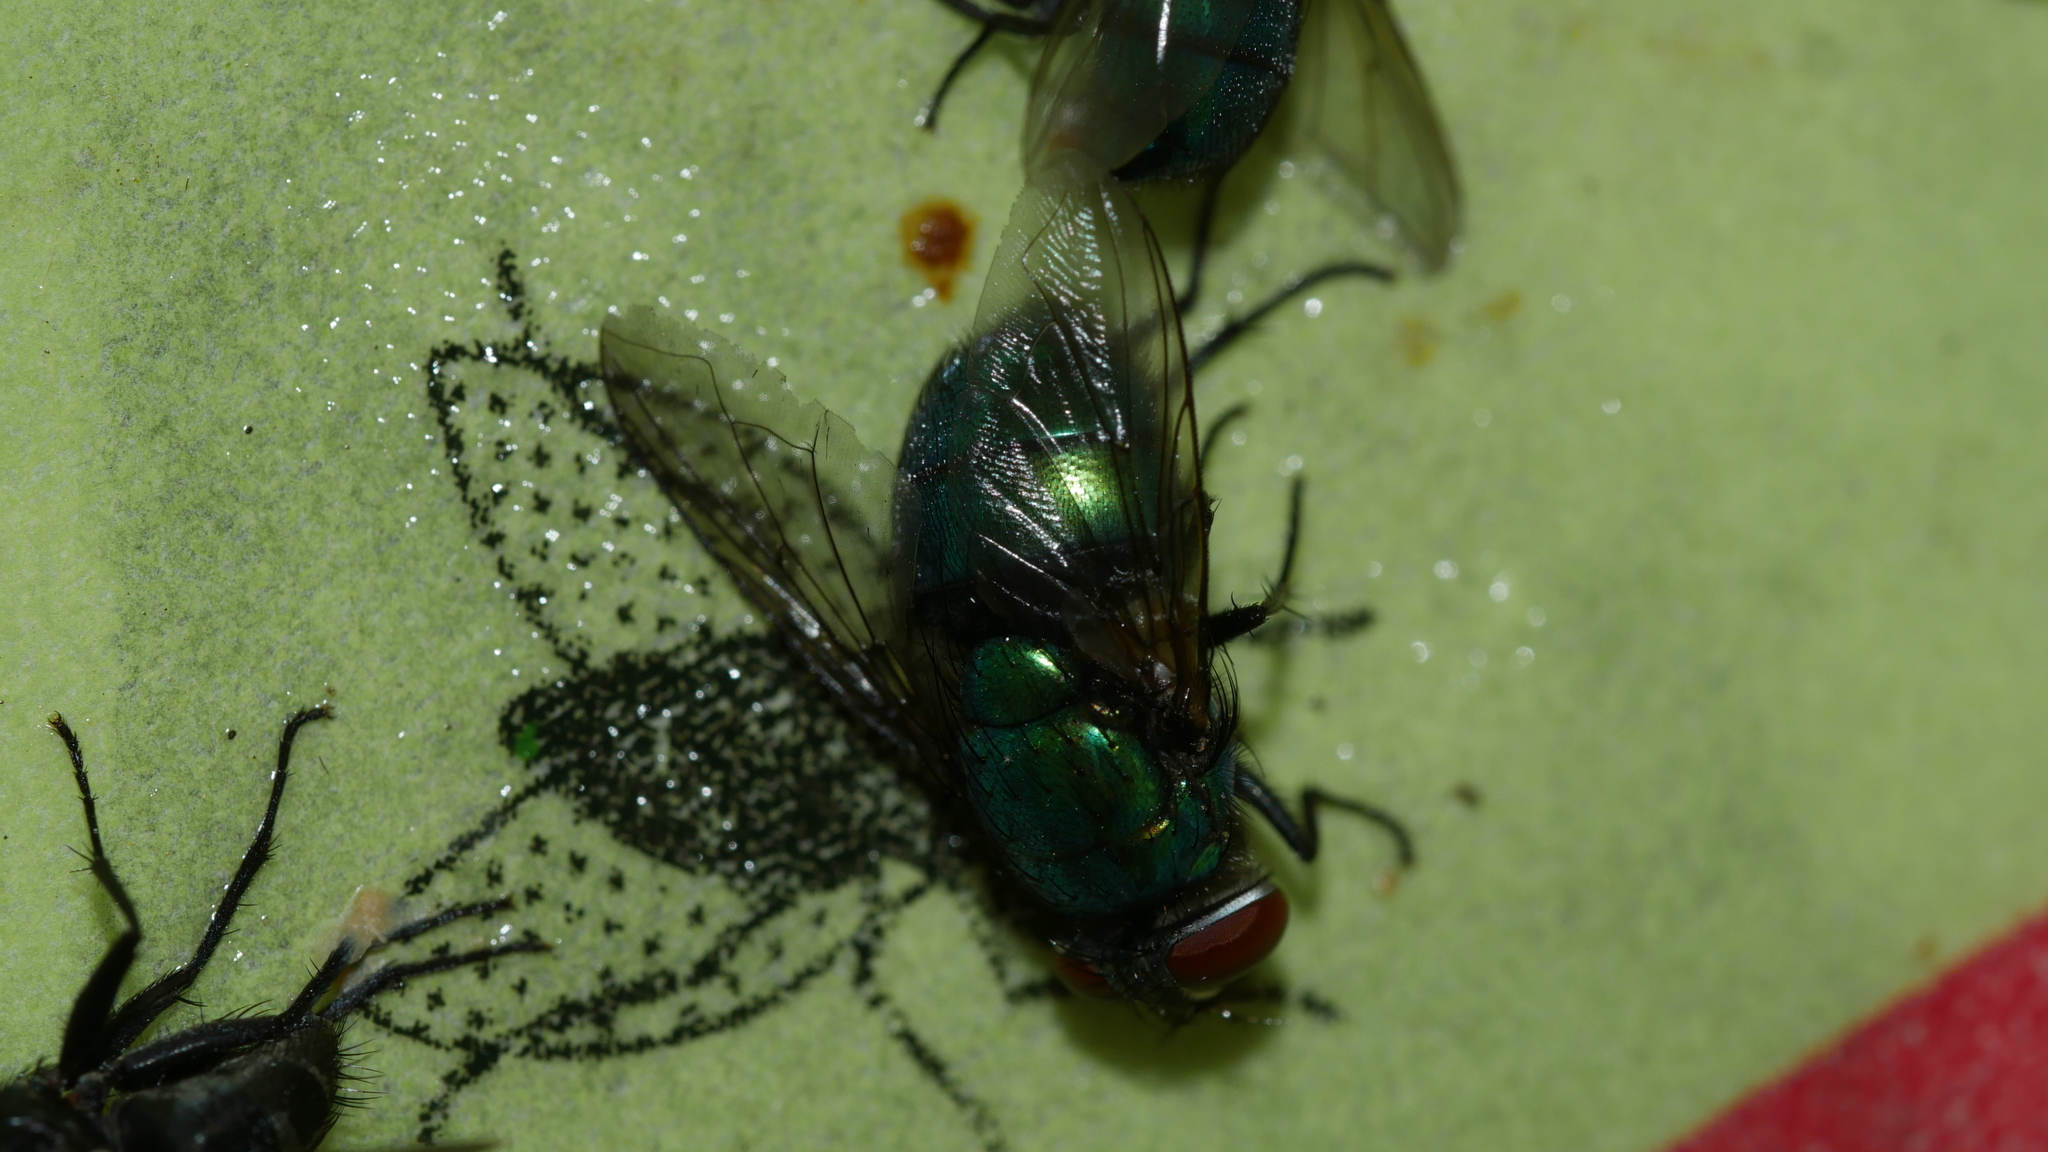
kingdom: Animalia
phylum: Arthropoda
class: Insecta
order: Diptera
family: Calliphoridae
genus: Lucilia
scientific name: Lucilia caeruleiviridis
